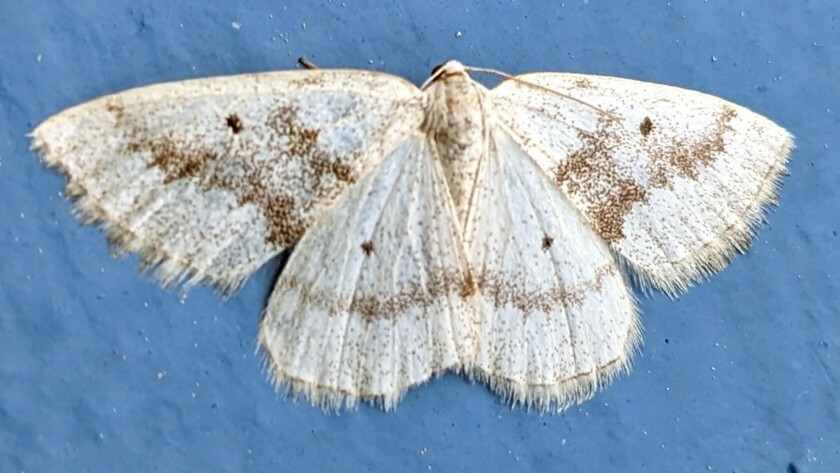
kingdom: Animalia
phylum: Arthropoda
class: Insecta
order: Lepidoptera
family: Geometridae
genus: Lomographa
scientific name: Lomographa glomeraria
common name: Gray spring moth
